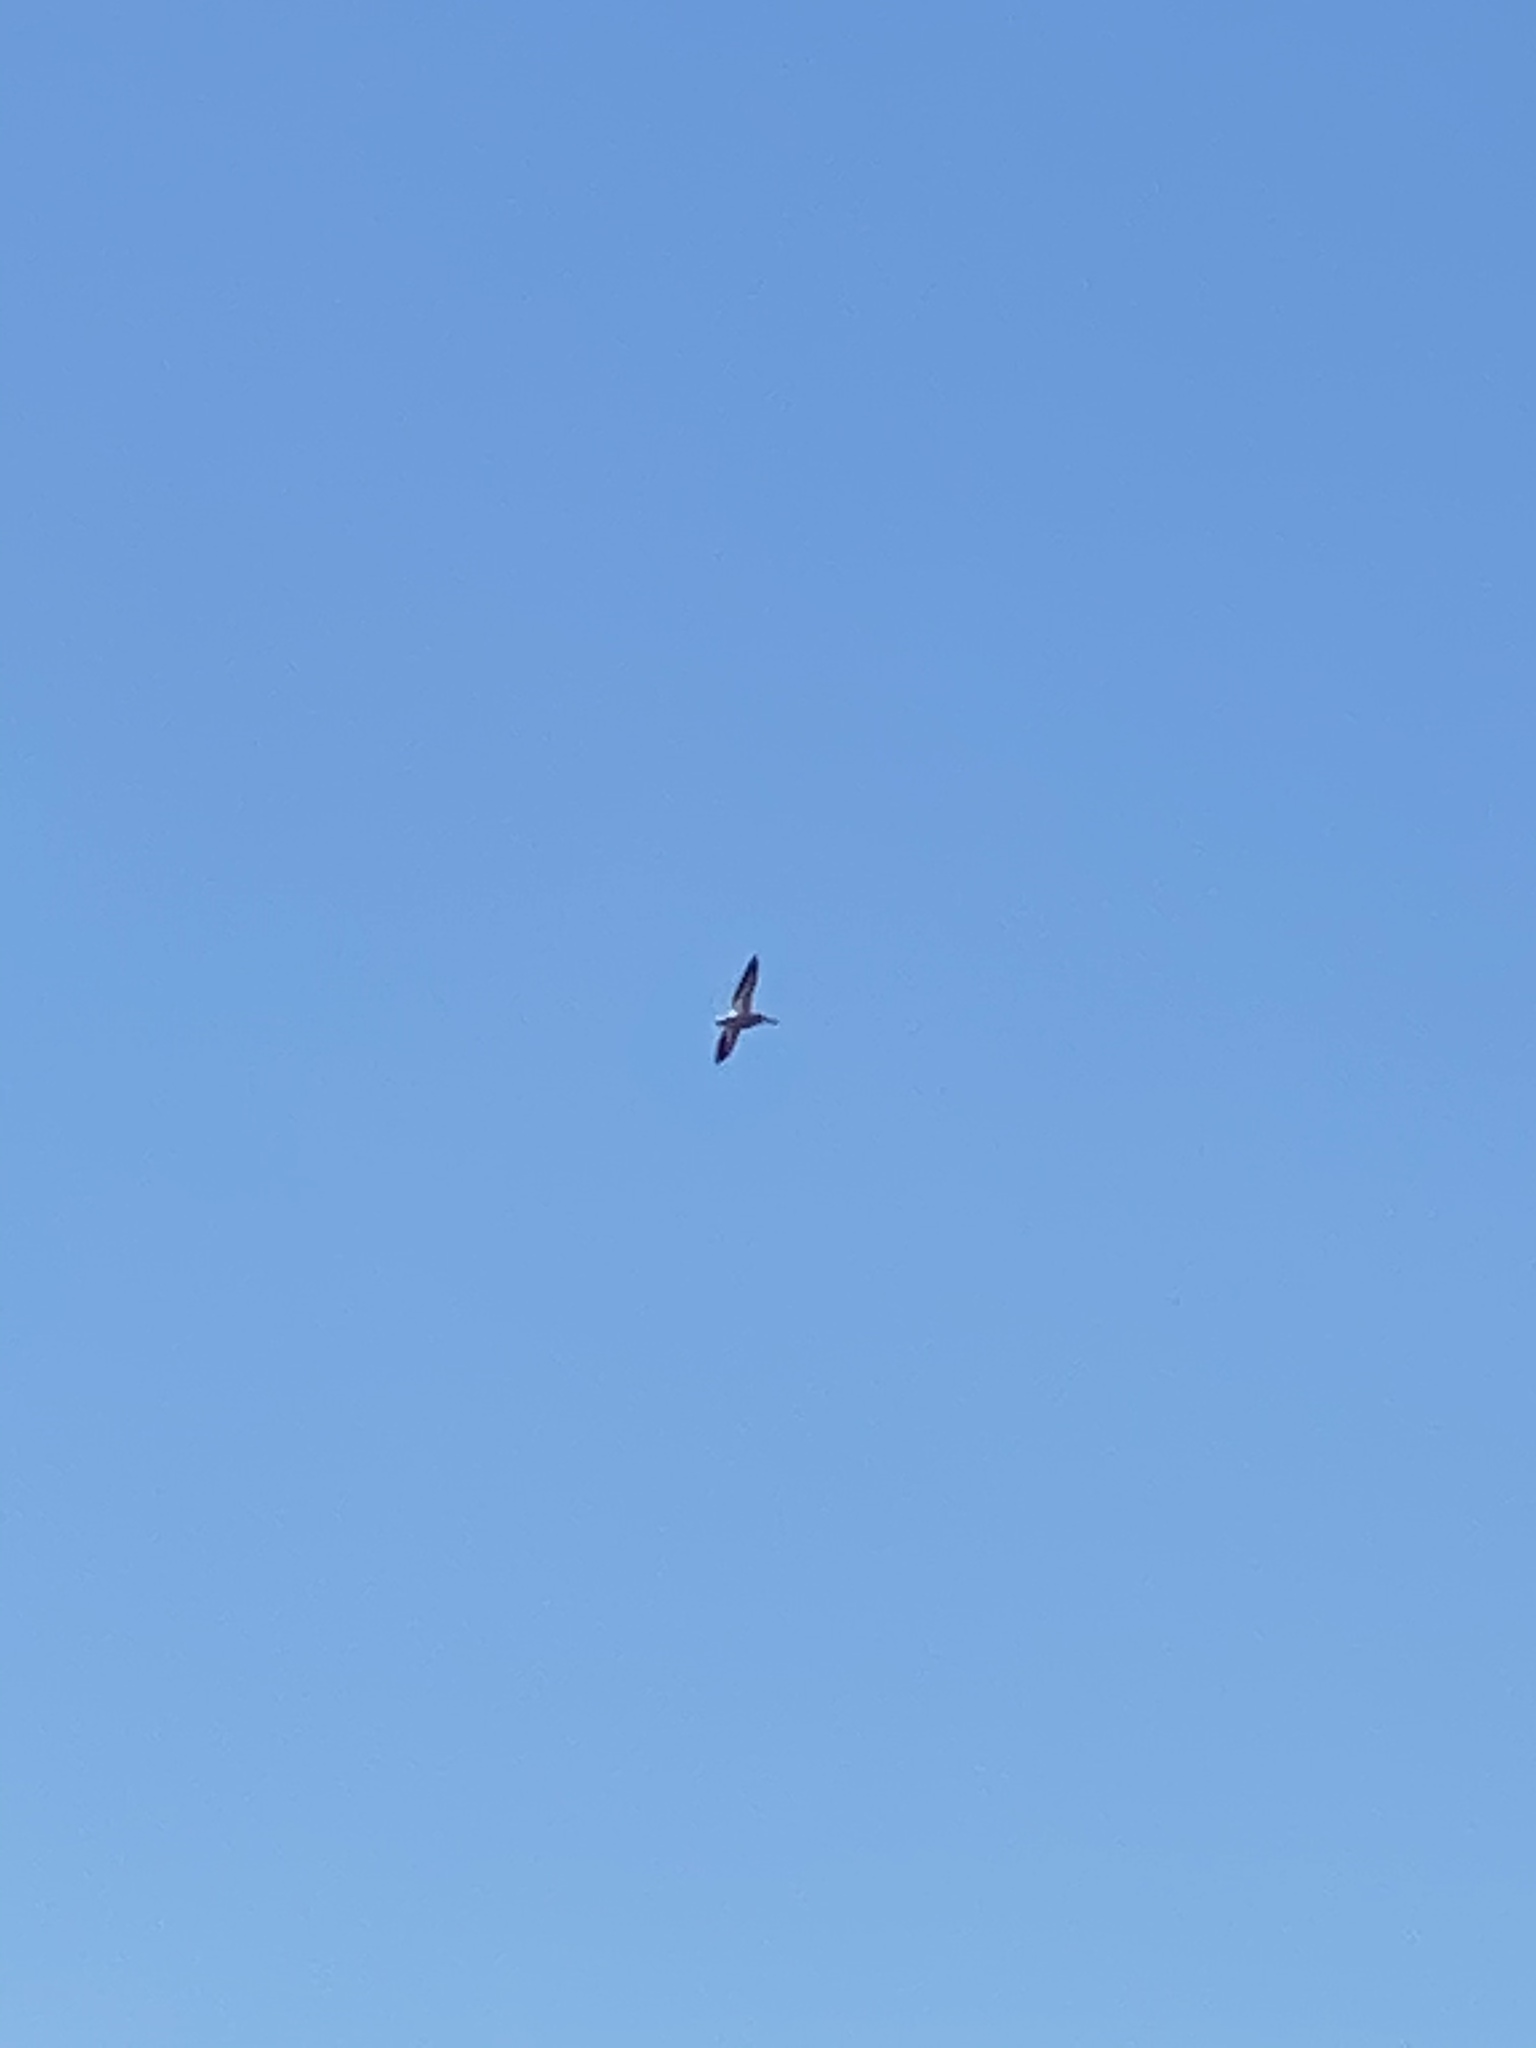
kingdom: Animalia
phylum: Chordata
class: Aves
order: Pelecaniformes
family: Pelecanidae
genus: Pelecanus
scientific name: Pelecanus erythrorhynchos
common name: American white pelican
